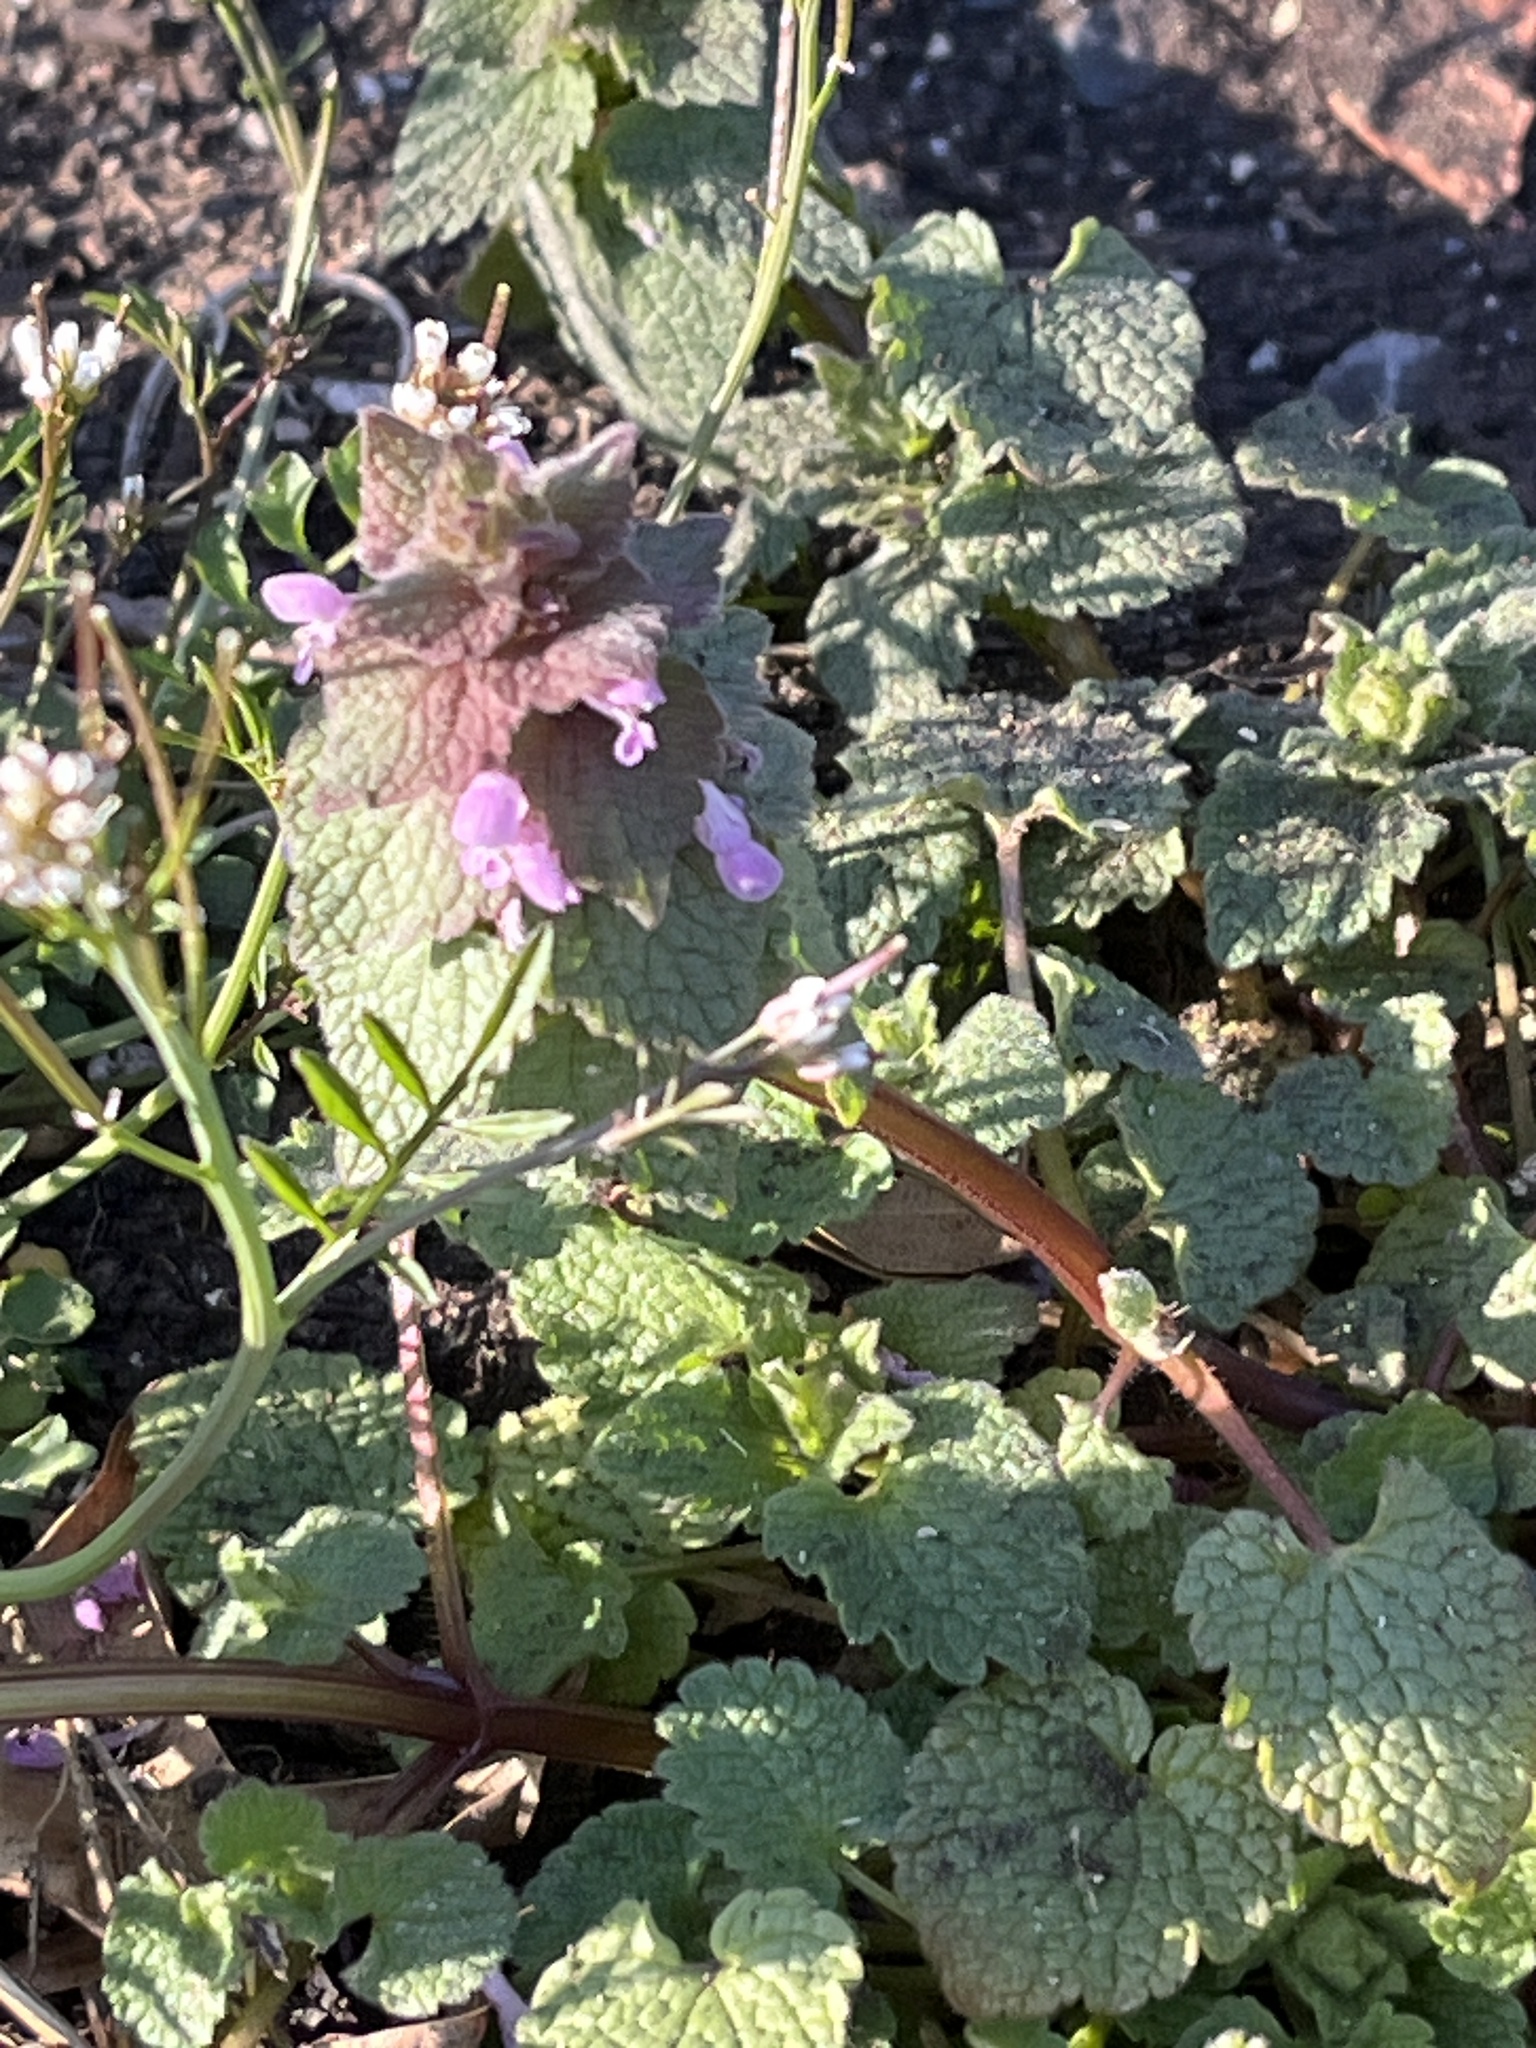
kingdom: Plantae
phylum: Tracheophyta
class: Magnoliopsida
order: Lamiales
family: Lamiaceae
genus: Lamium
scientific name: Lamium purpureum
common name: Red dead-nettle
